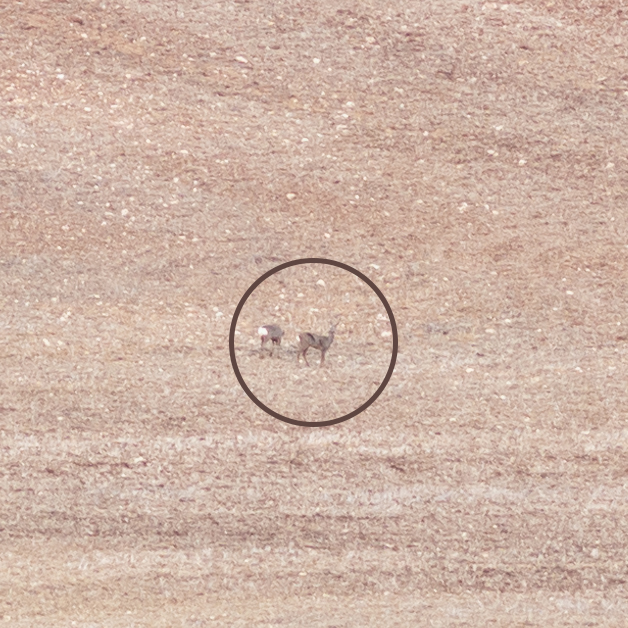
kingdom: Animalia
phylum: Chordata
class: Mammalia
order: Artiodactyla
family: Cervidae
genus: Capreolus
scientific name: Capreolus capreolus
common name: Western roe deer
